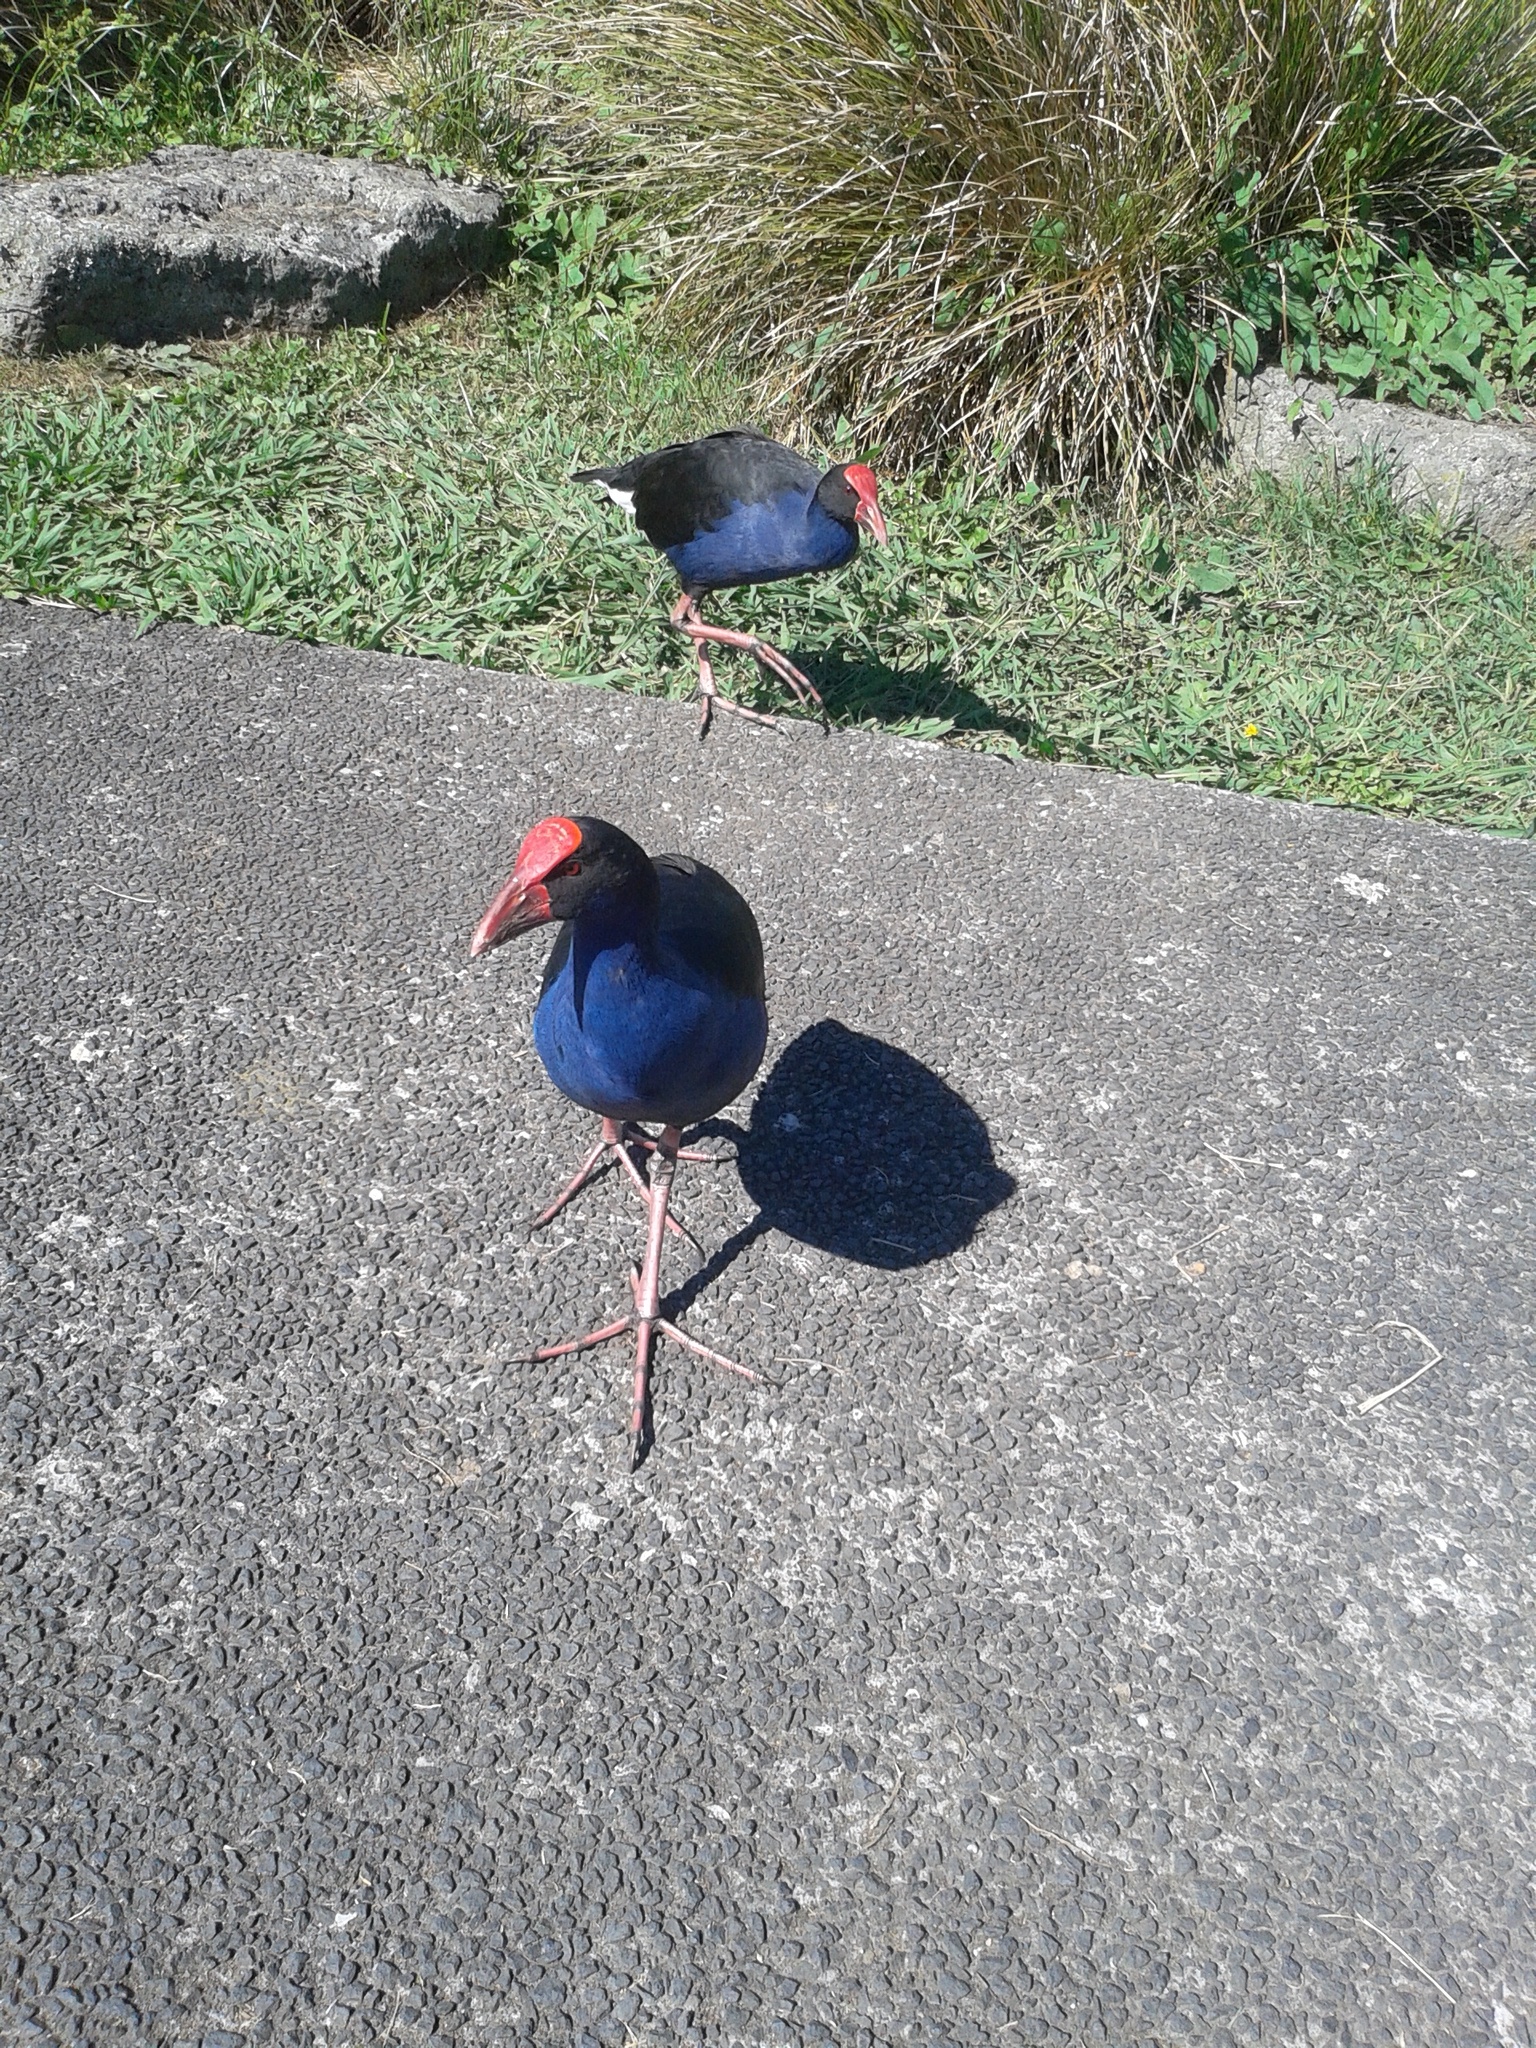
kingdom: Animalia
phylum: Chordata
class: Aves
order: Gruiformes
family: Rallidae
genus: Porphyrio
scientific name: Porphyrio melanotus
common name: Australasian swamphen
